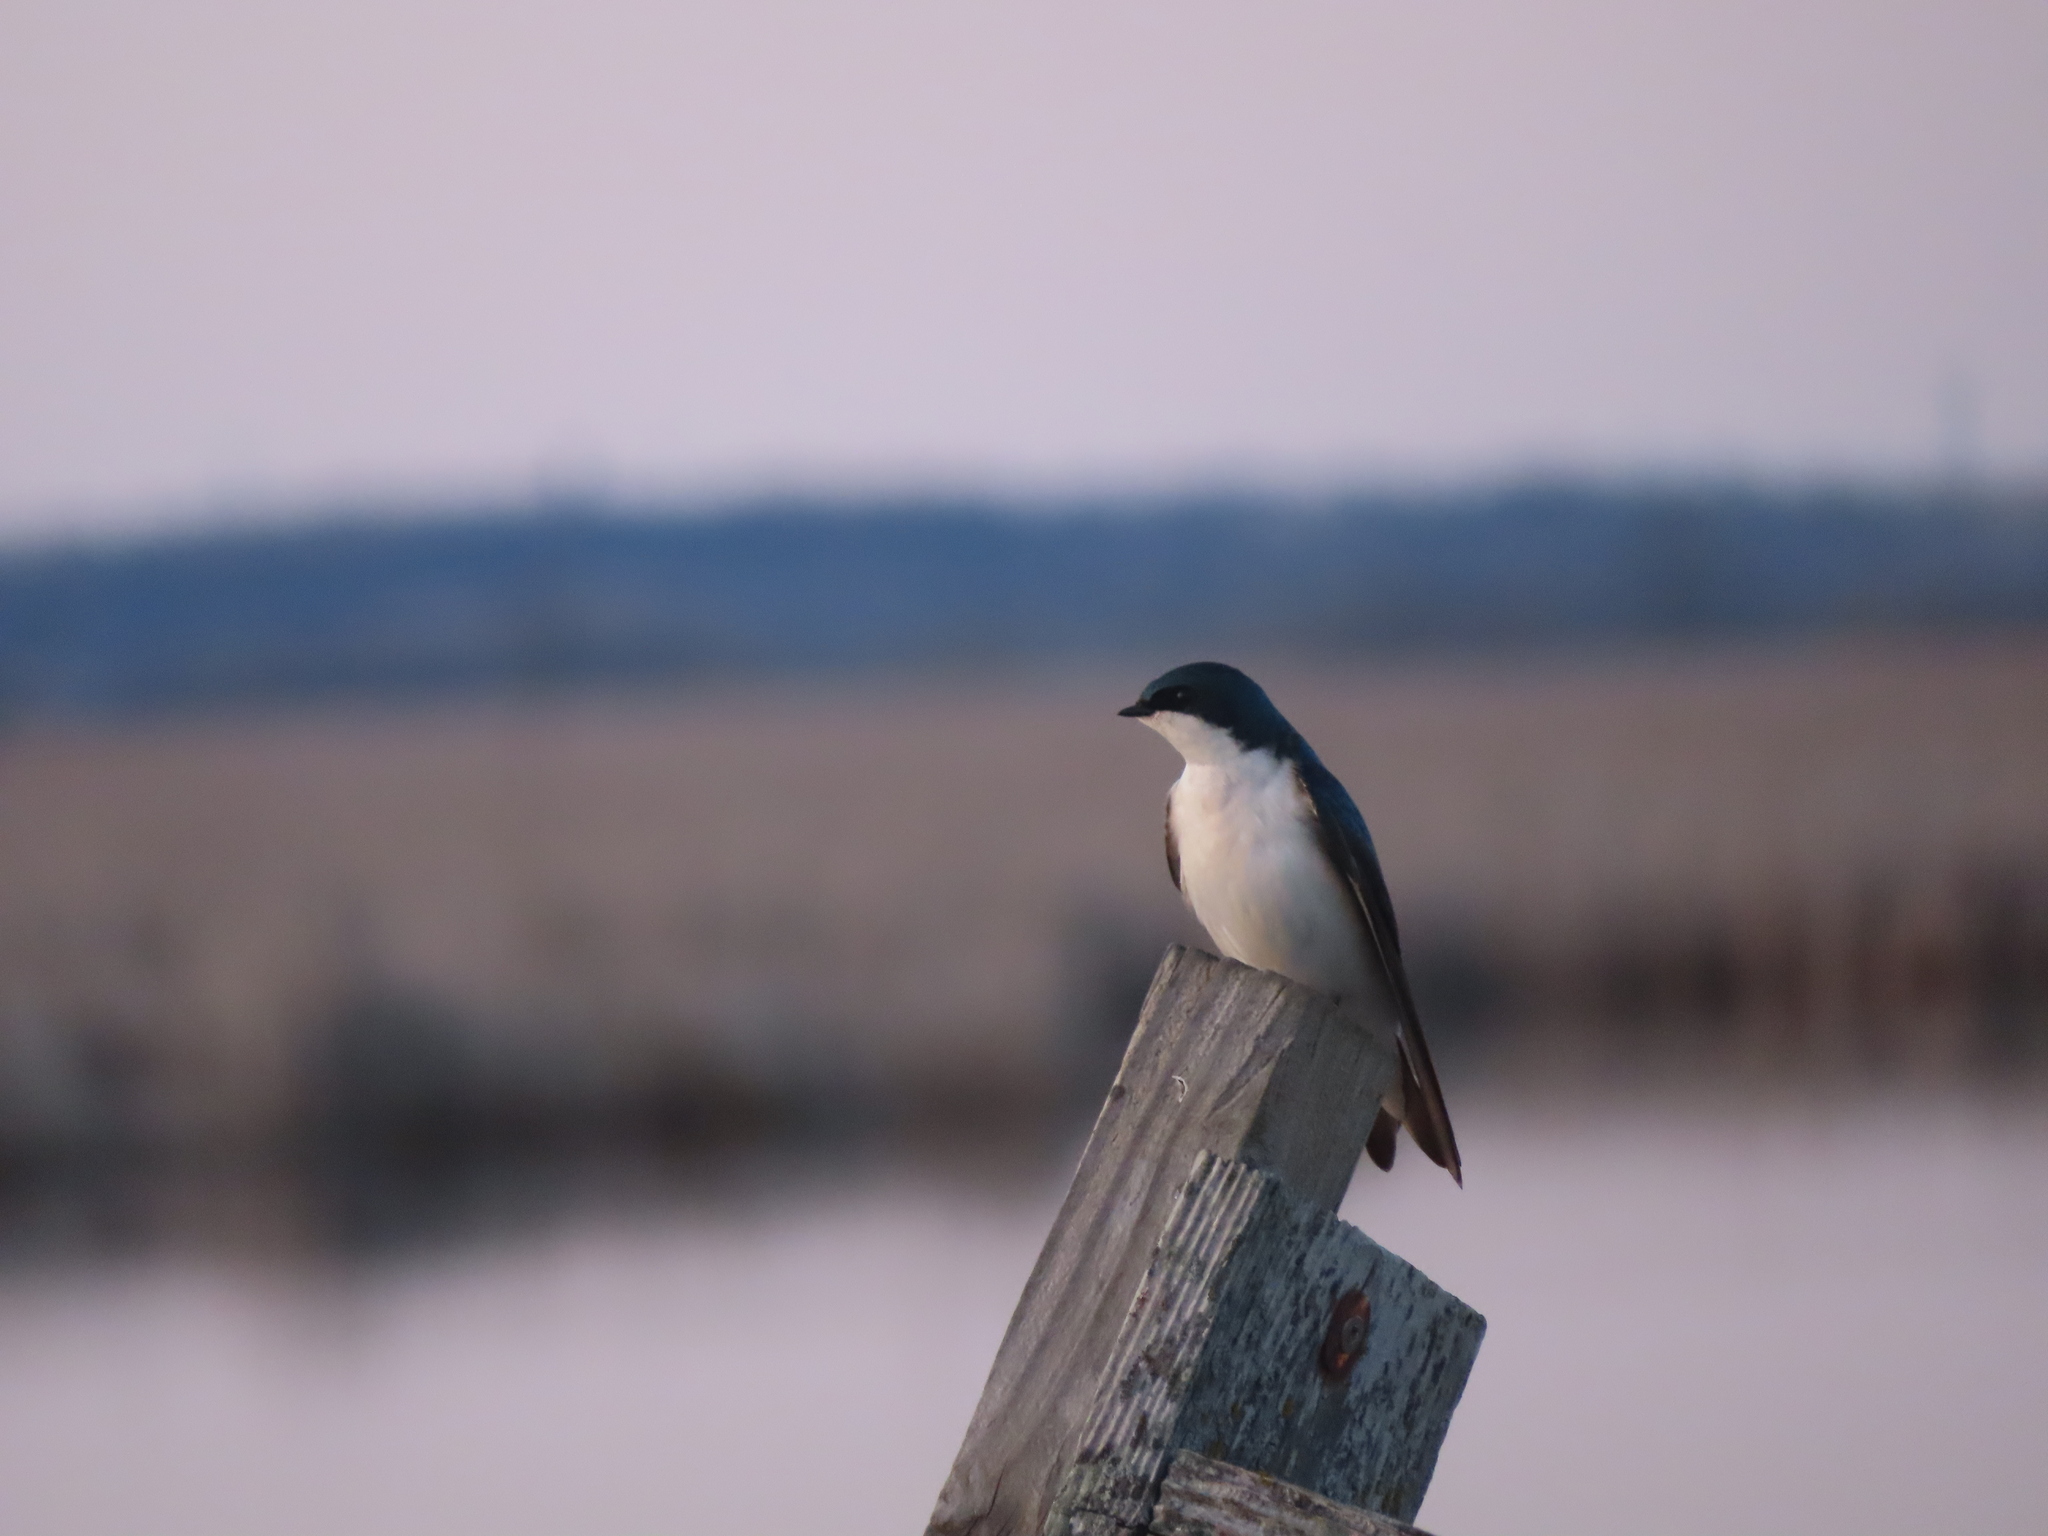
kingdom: Animalia
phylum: Chordata
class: Aves
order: Passeriformes
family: Hirundinidae
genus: Tachycineta
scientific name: Tachycineta bicolor
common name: Tree swallow
